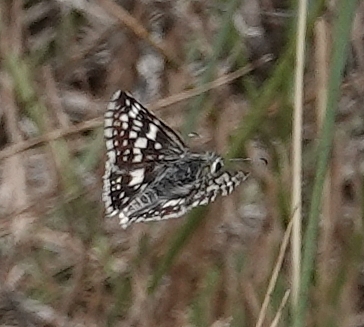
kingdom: Animalia
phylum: Arthropoda
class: Insecta
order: Lepidoptera
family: Hesperiidae
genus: Burnsius
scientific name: Burnsius communis
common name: Common checkered-skipper
